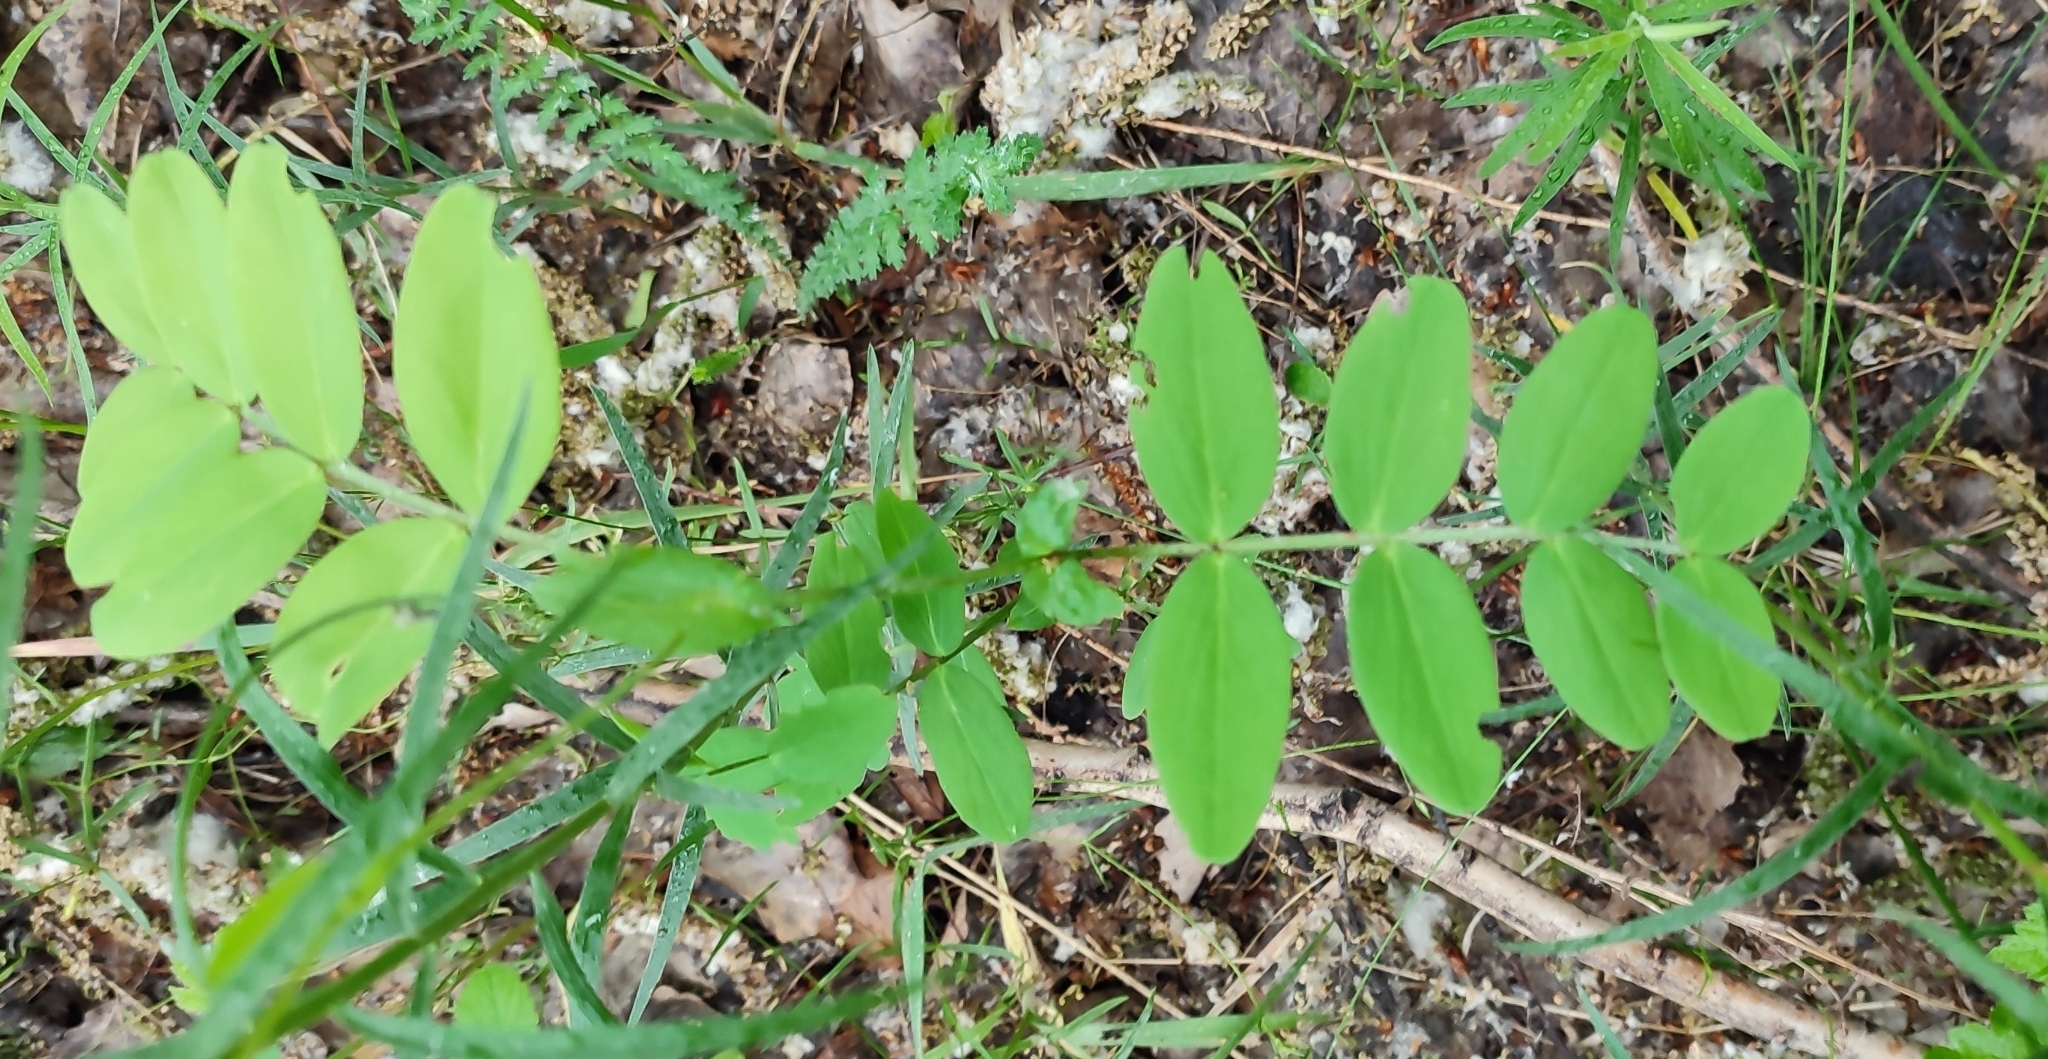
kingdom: Plantae
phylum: Tracheophyta
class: Magnoliopsida
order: Fabales
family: Fabaceae
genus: Lathyrus
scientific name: Lathyrus pisiformis
